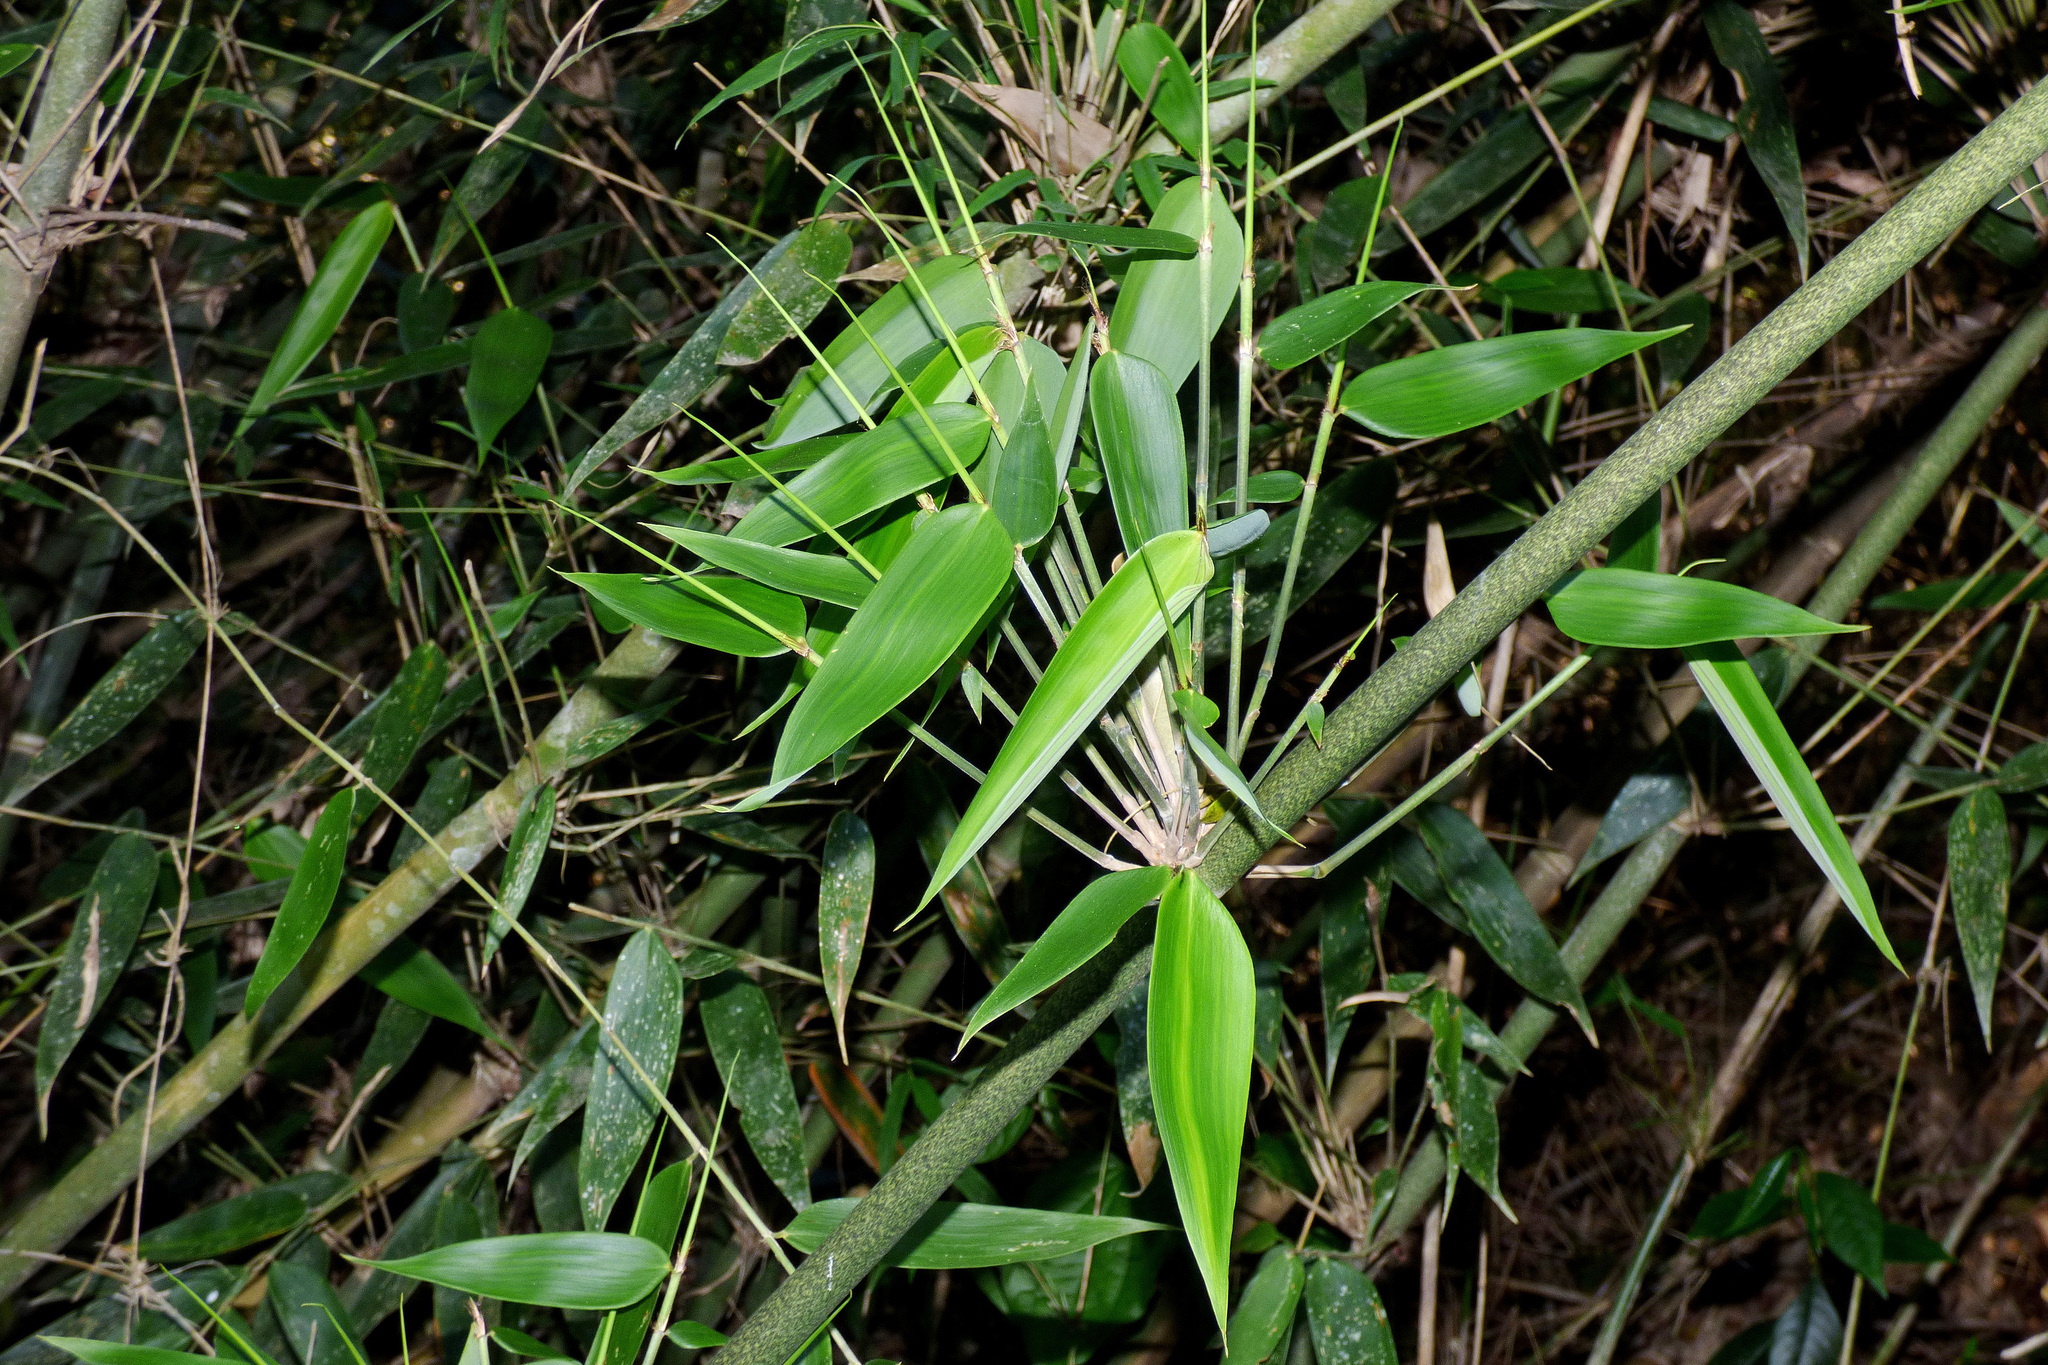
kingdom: Plantae
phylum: Tracheophyta
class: Liliopsida
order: Poales
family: Poaceae
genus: Merostachys
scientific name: Merostachys claussenii
